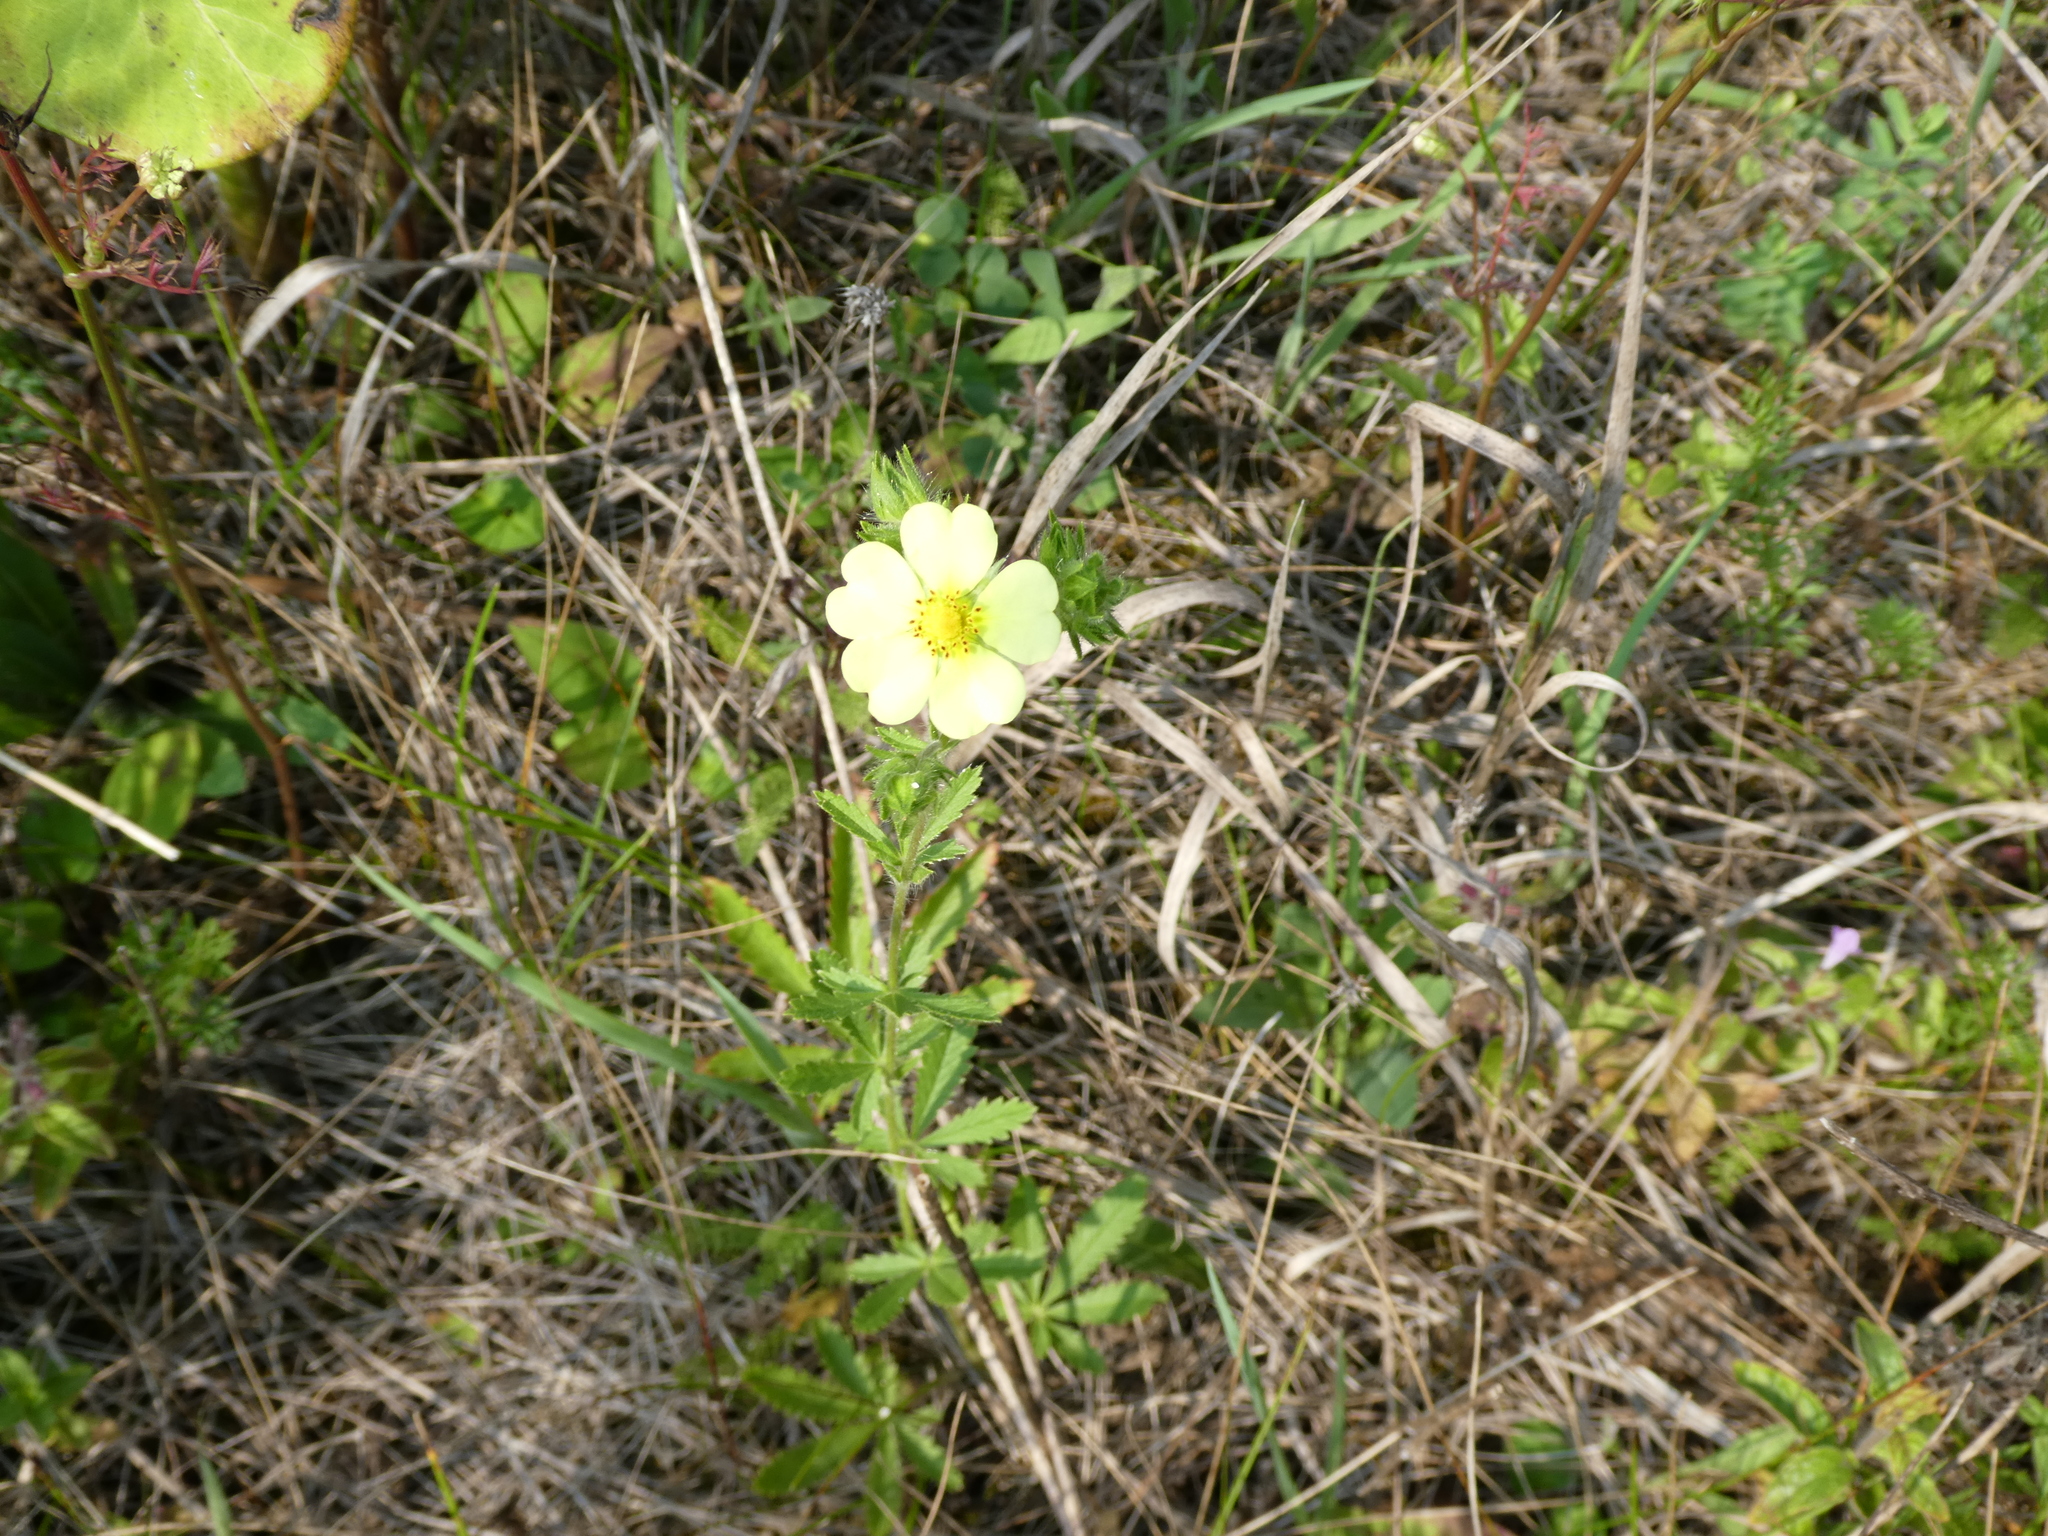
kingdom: Plantae
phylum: Tracheophyta
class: Magnoliopsida
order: Rosales
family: Rosaceae
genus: Potentilla
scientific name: Potentilla recta
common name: Sulphur cinquefoil
